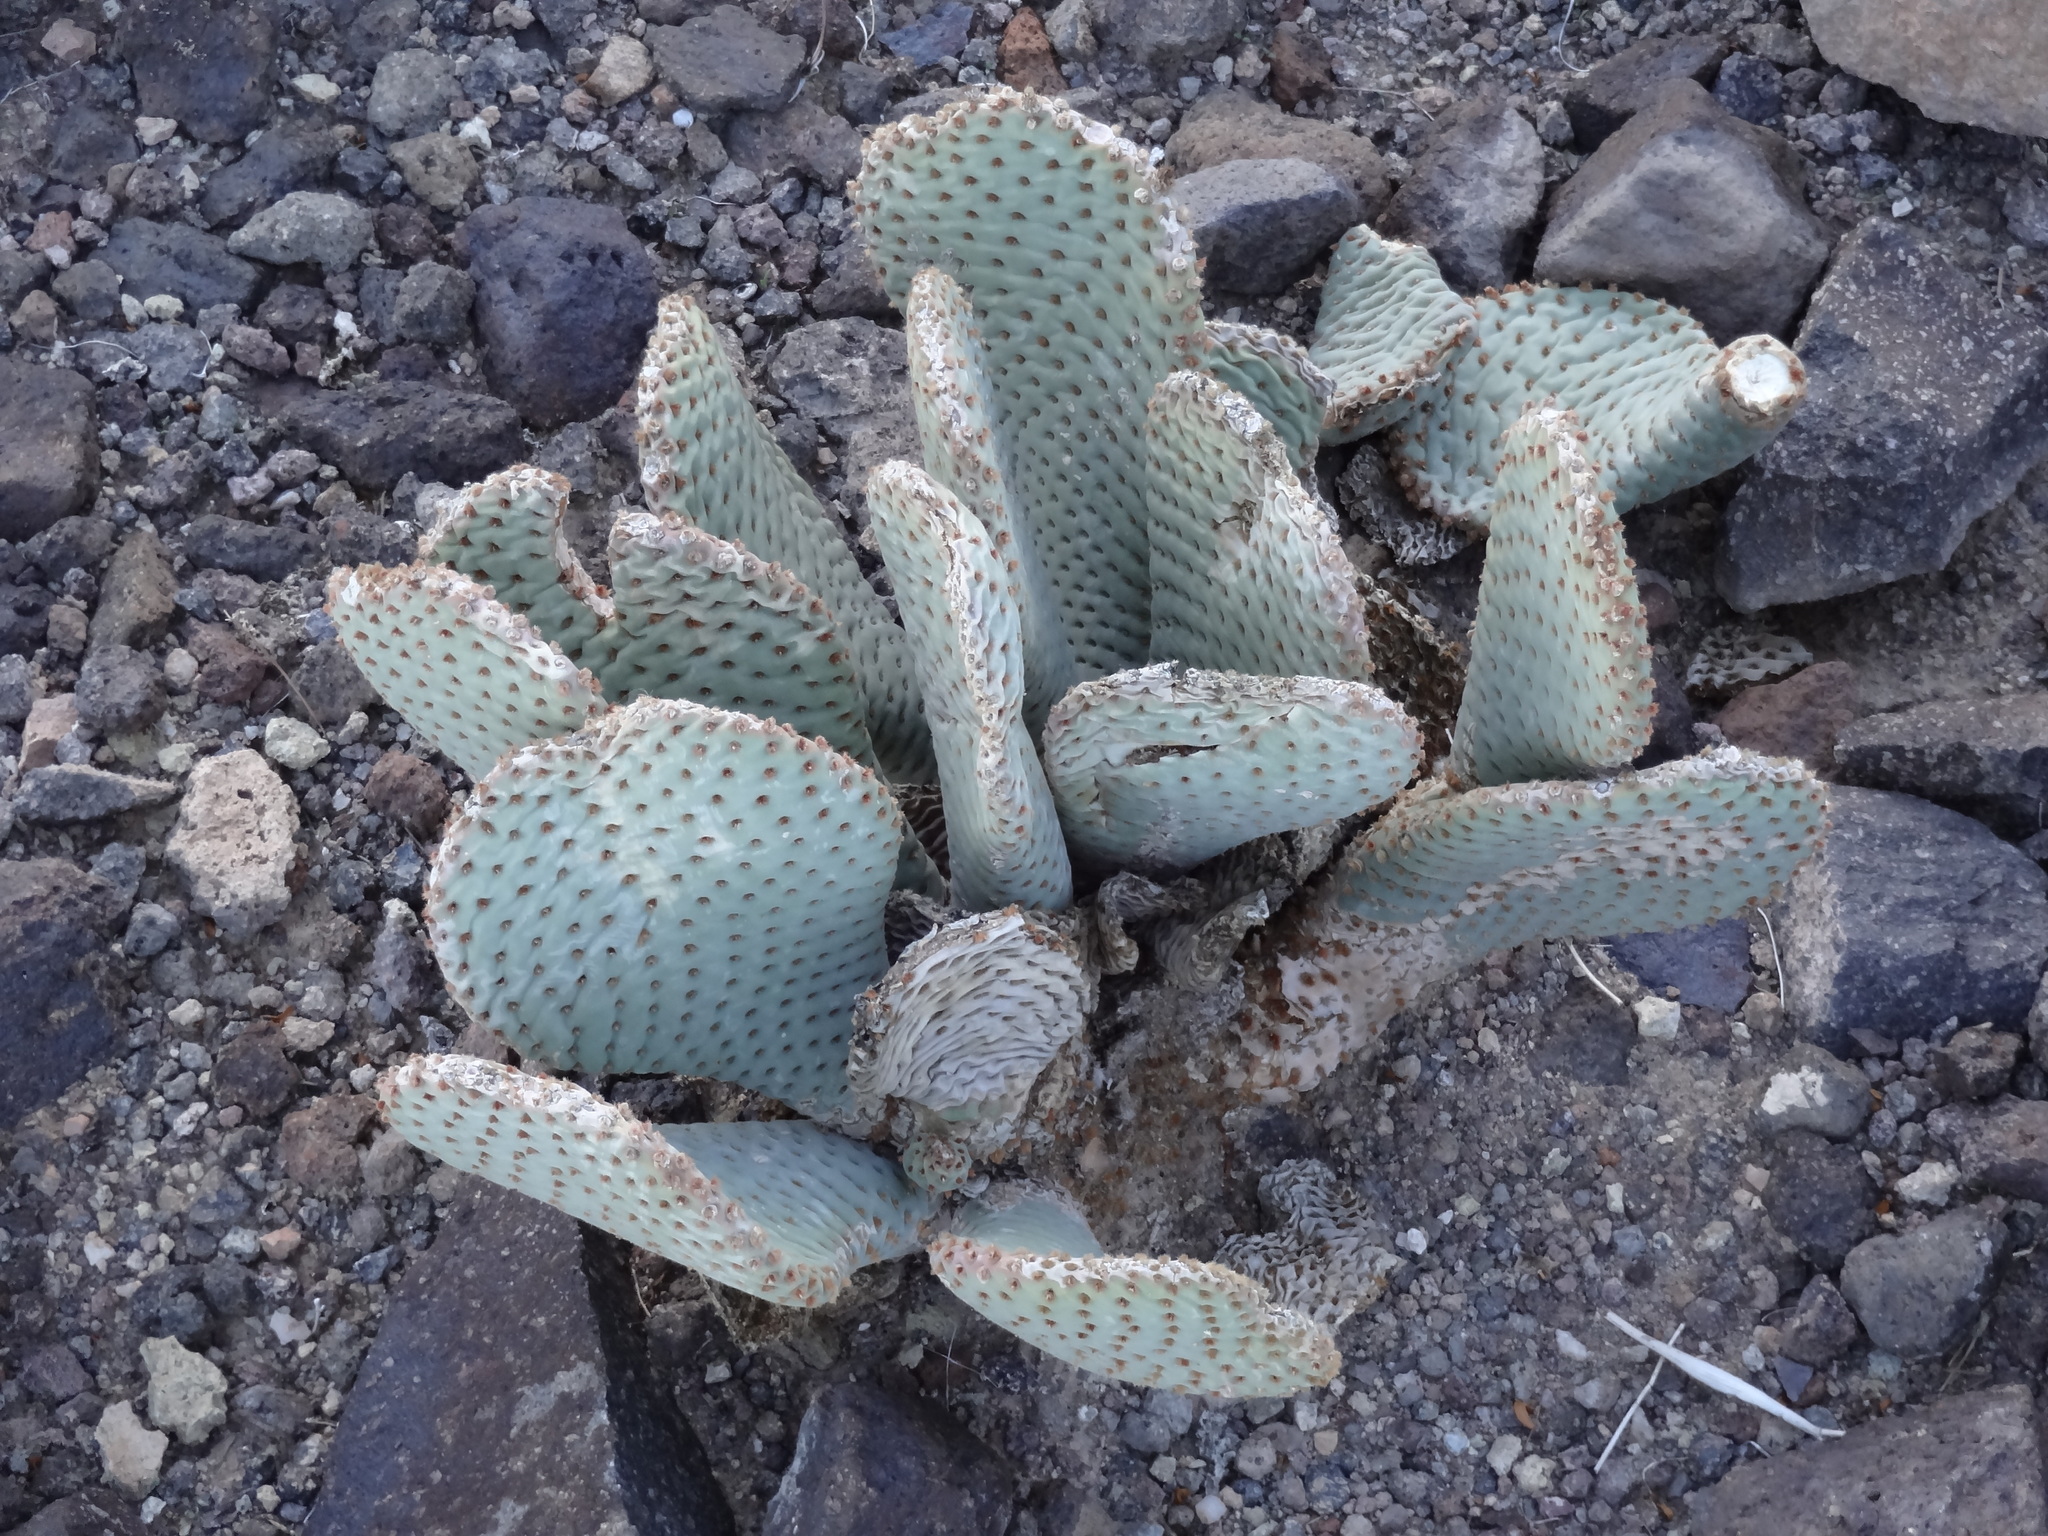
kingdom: Plantae
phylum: Tracheophyta
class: Magnoliopsida
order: Caryophyllales
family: Cactaceae
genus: Opuntia
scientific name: Opuntia basilaris
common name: Beavertail prickly-pear
